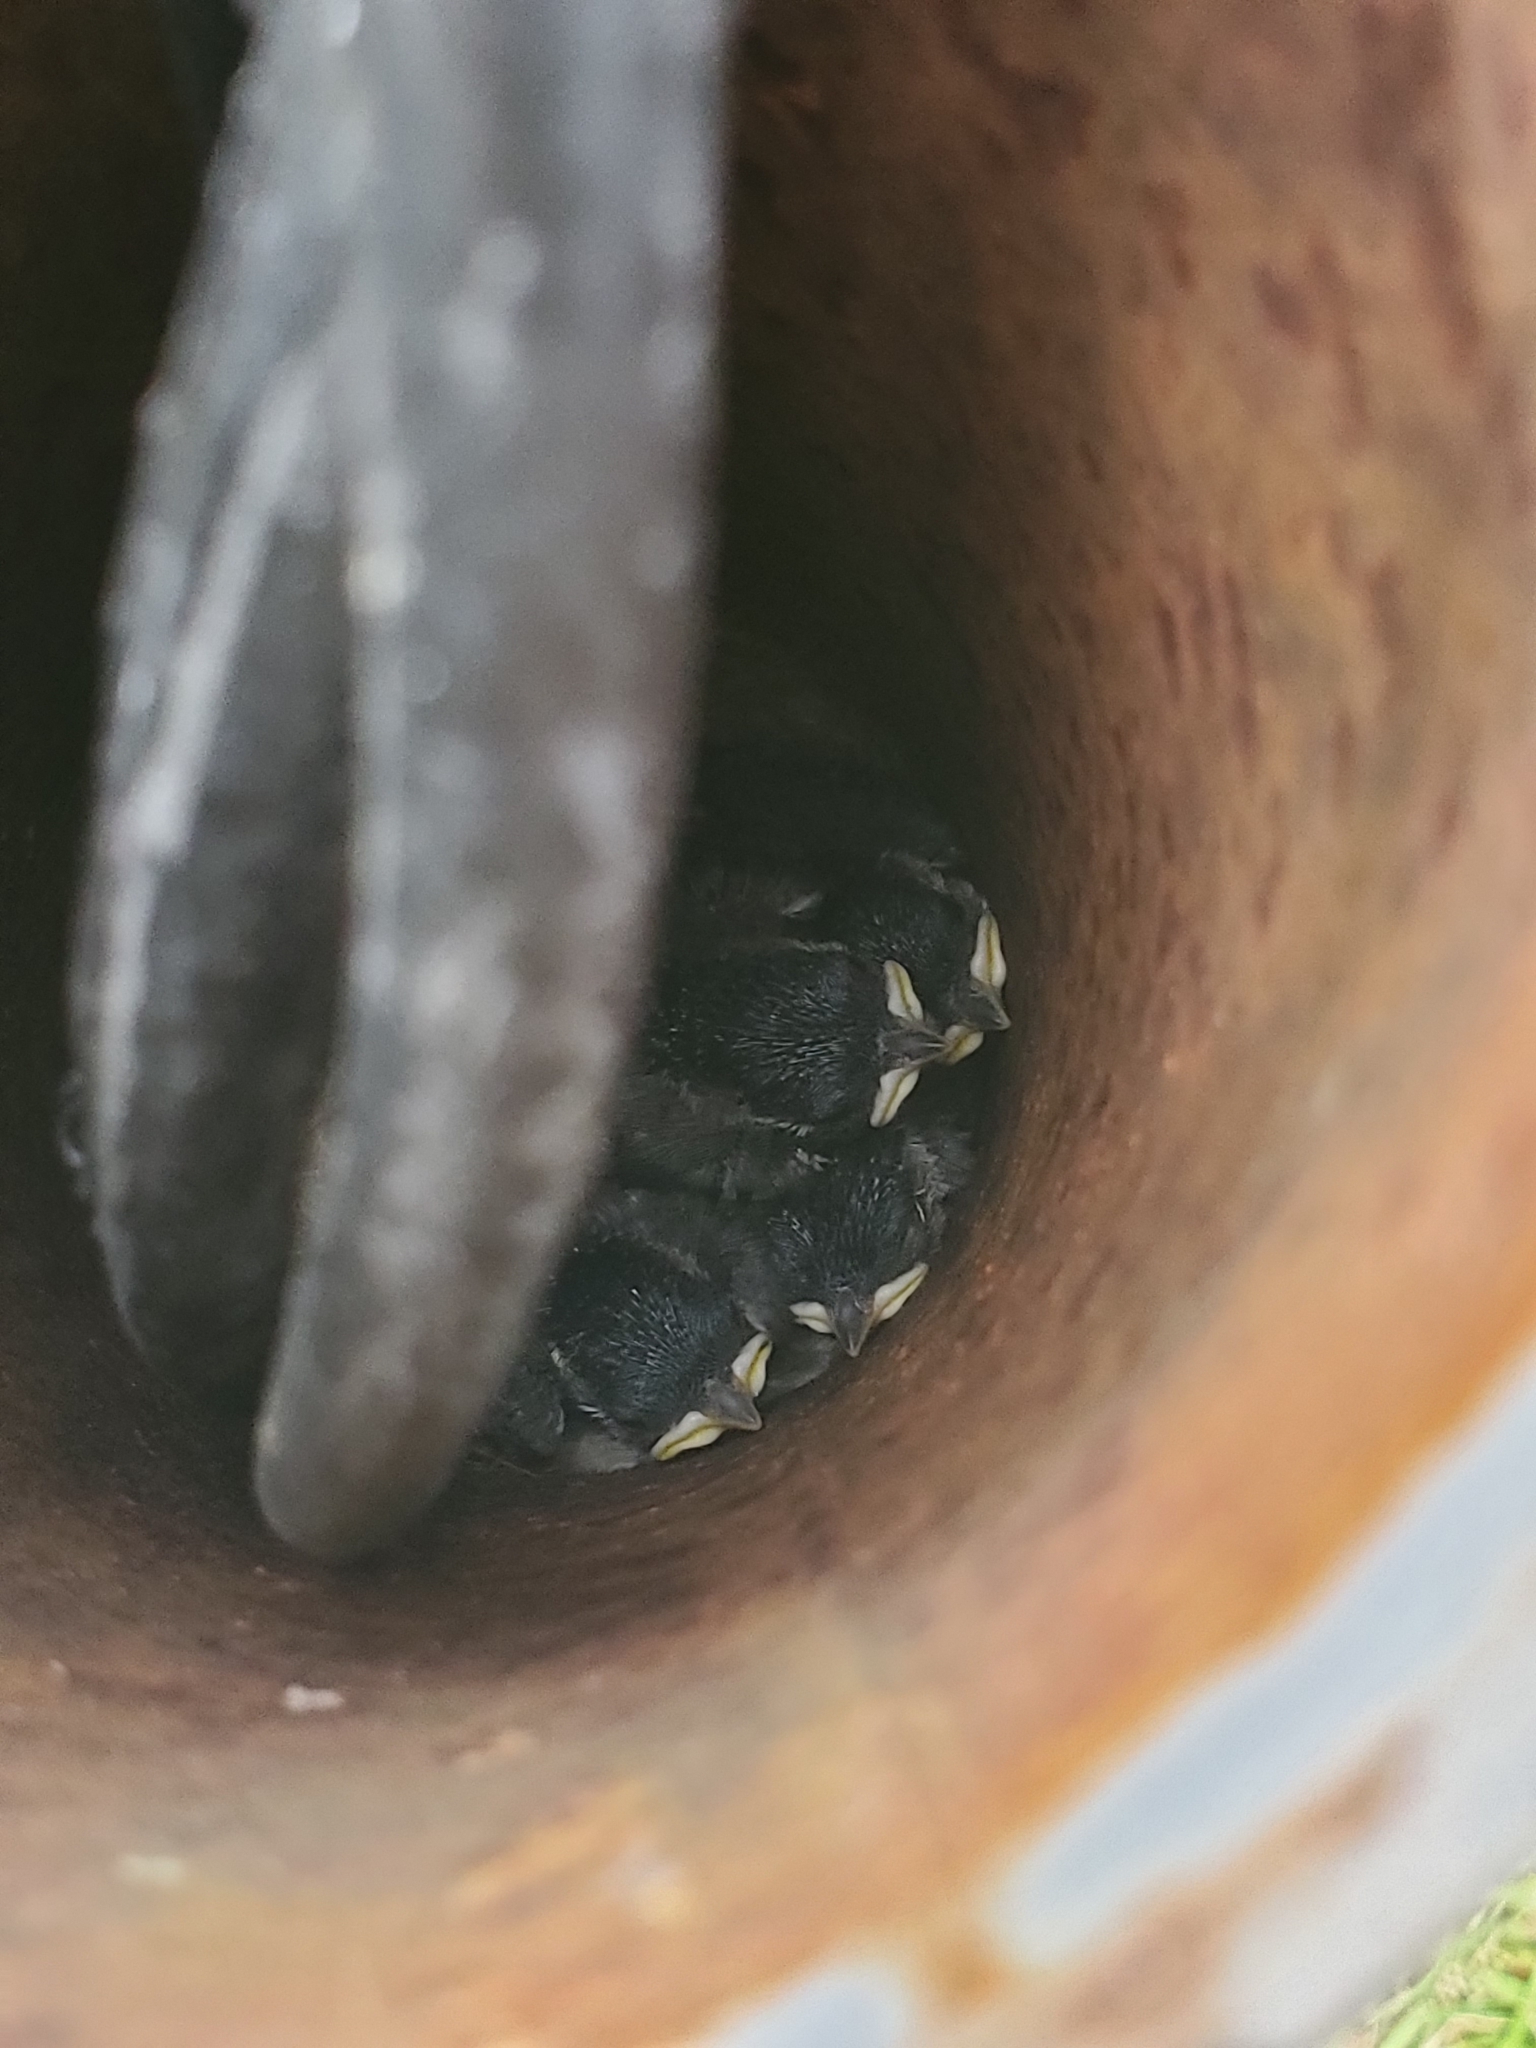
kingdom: Animalia
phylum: Chordata
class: Aves
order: Passeriformes
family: Paridae
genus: Poecile
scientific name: Poecile carolinensis
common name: Carolina chickadee
